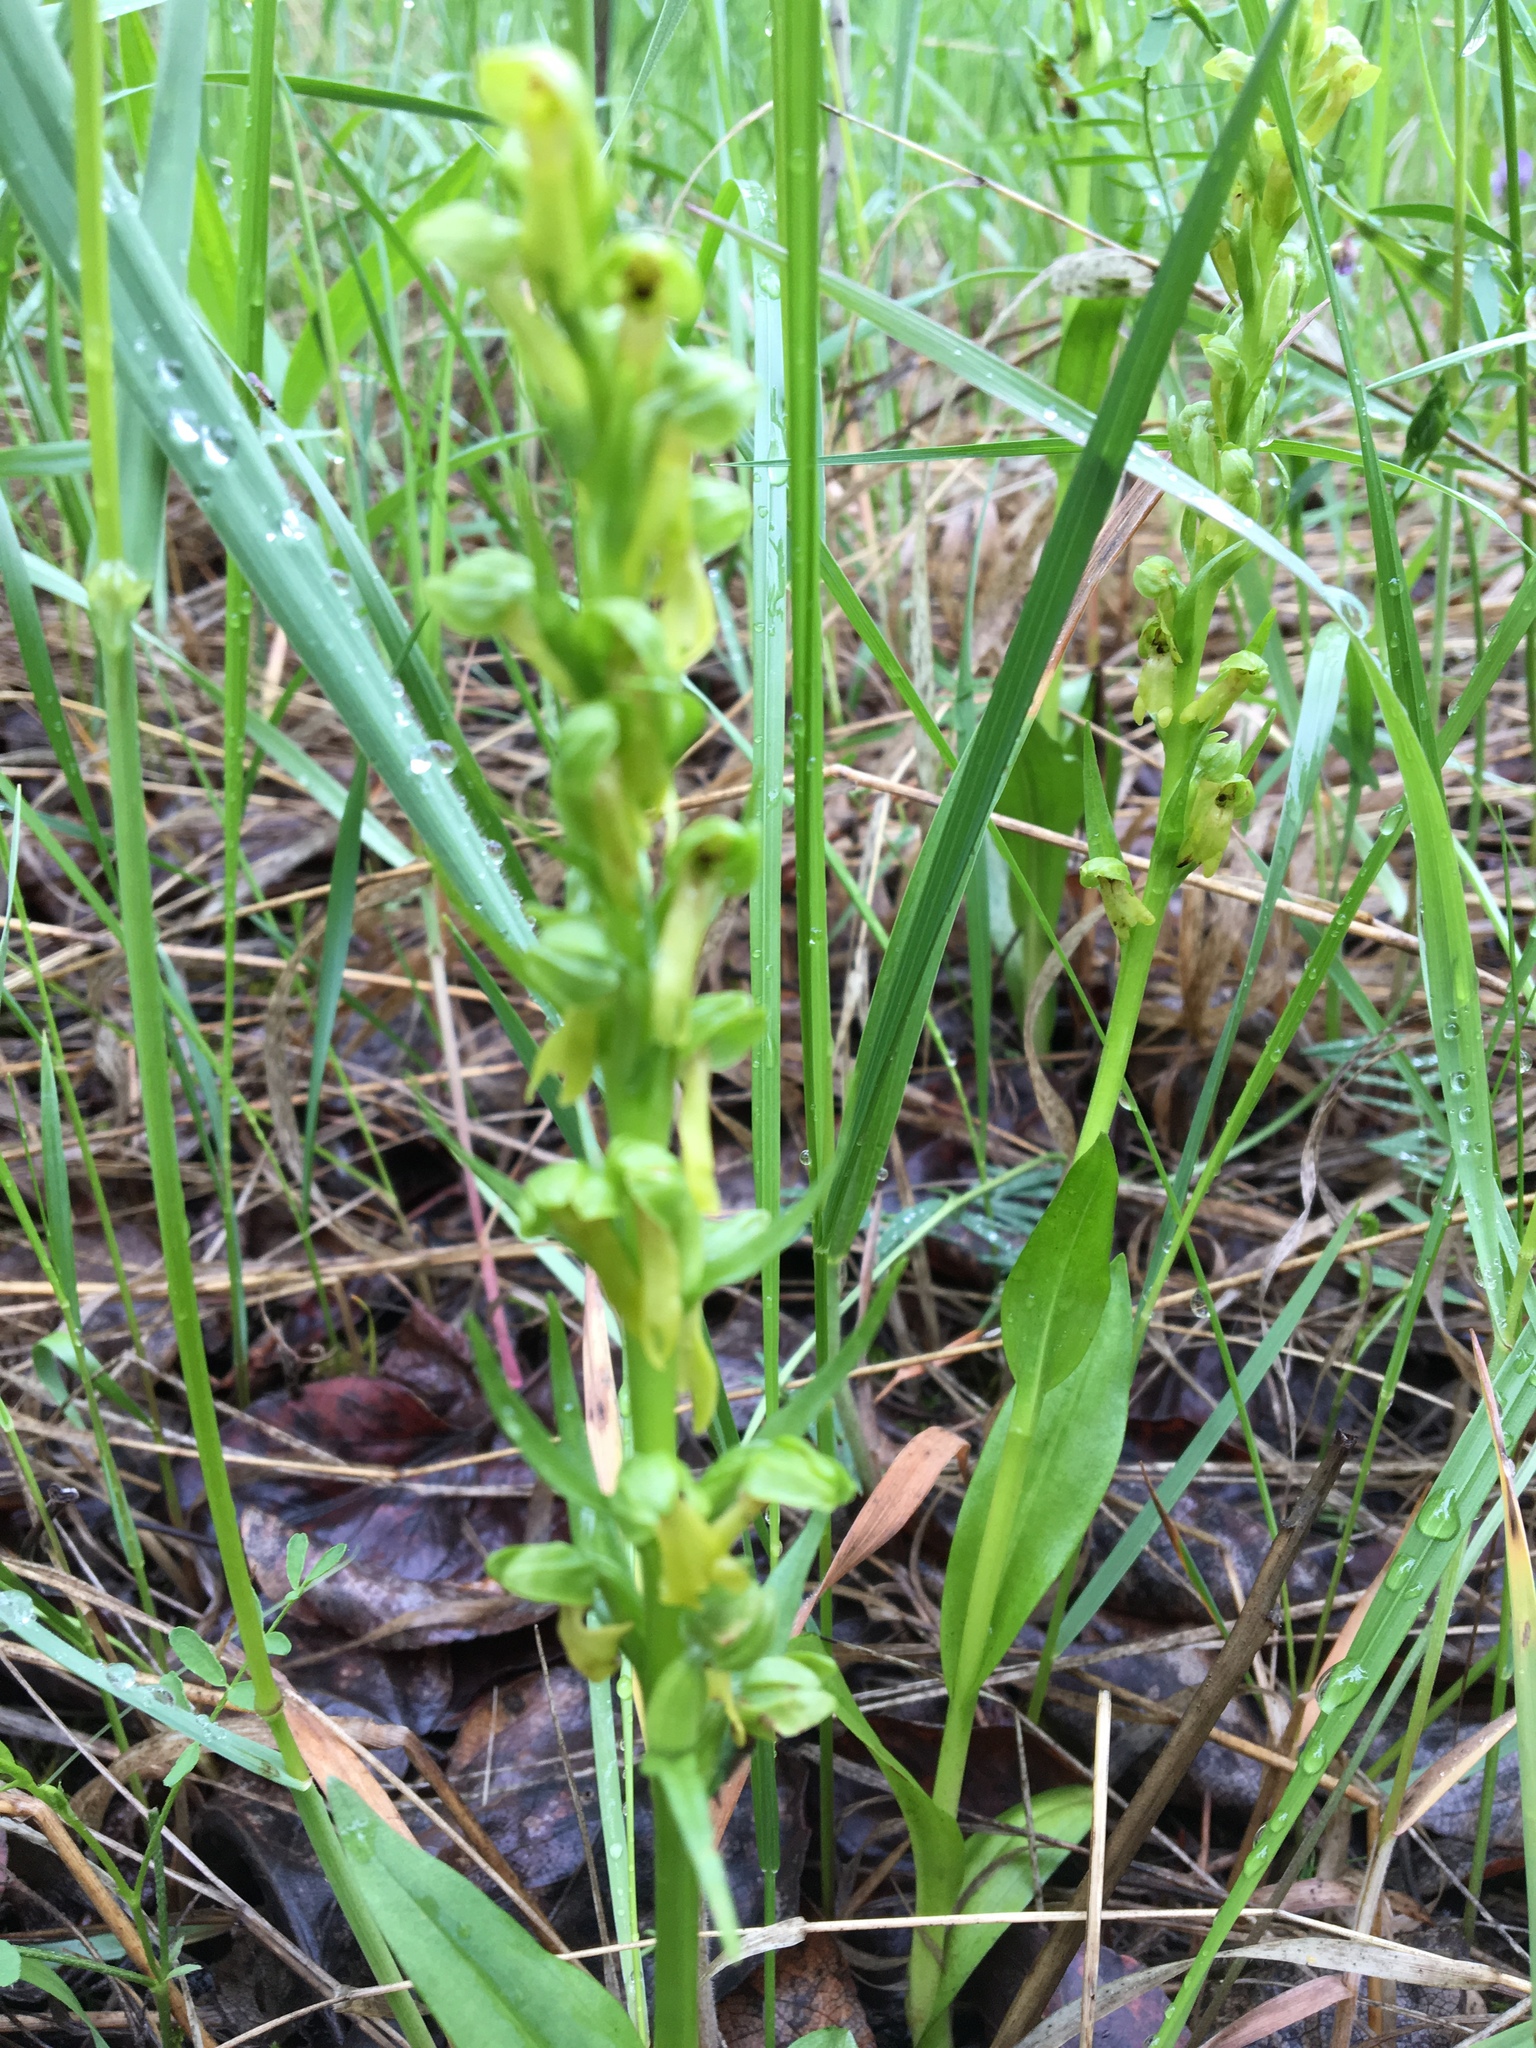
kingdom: Plantae
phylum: Tracheophyta
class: Liliopsida
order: Asparagales
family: Orchidaceae
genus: Dactylorhiza
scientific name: Dactylorhiza viridis
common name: Longbract frog orchid
